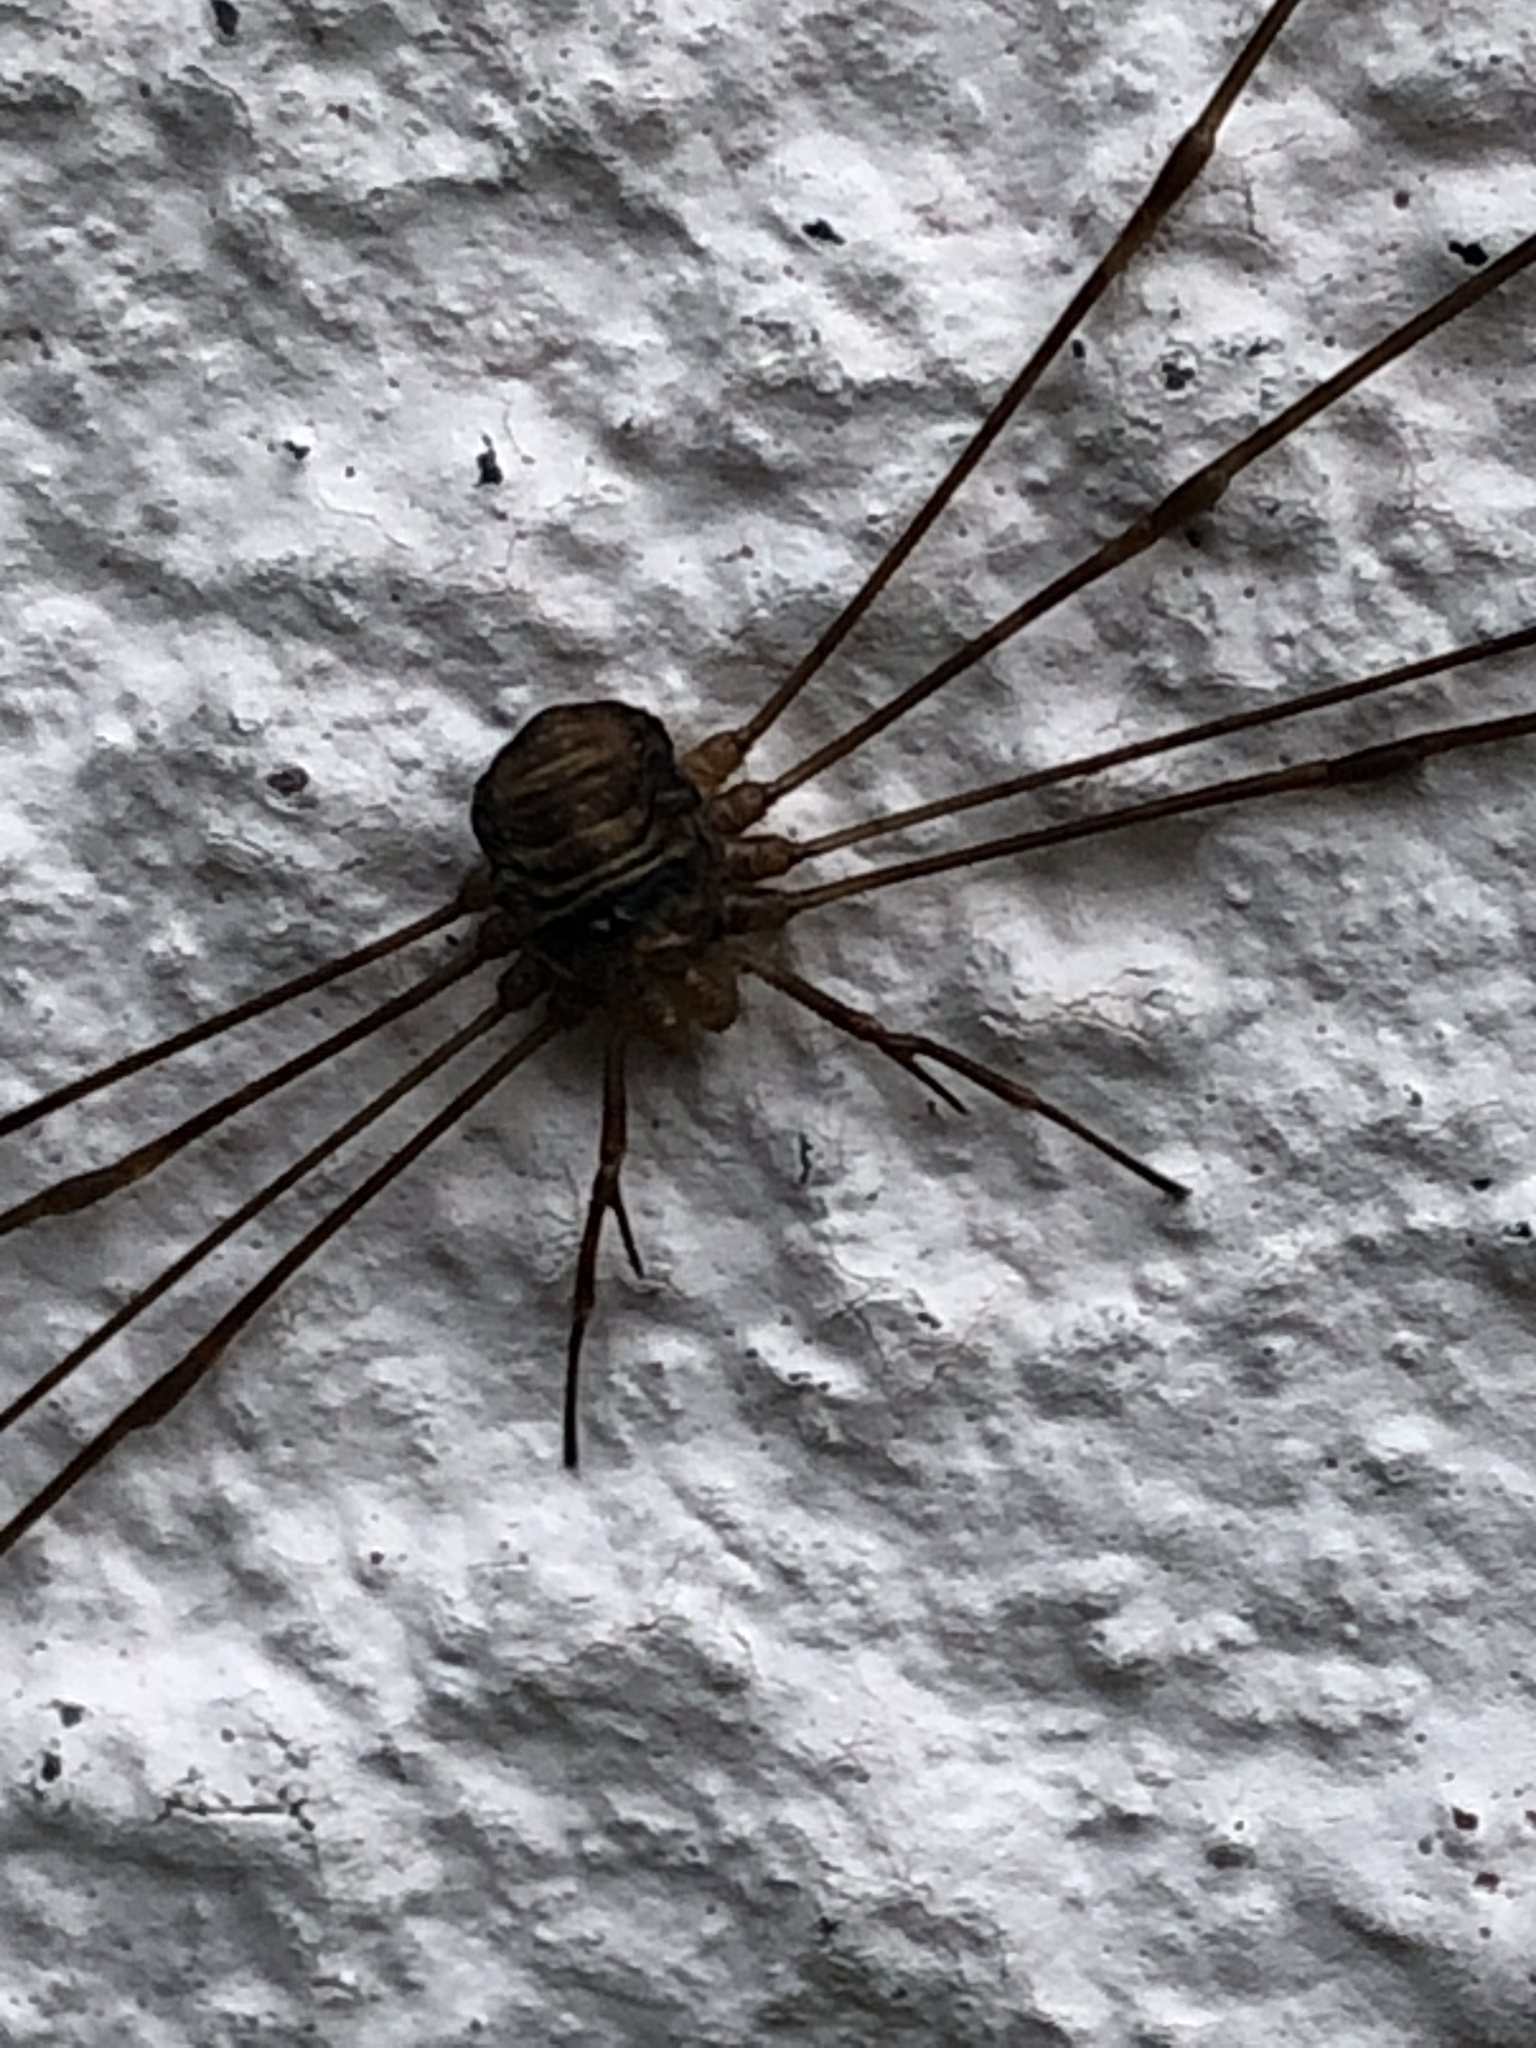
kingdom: Animalia
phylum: Arthropoda
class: Arachnida
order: Opiliones
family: Phalangiidae
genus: Dicranopalpus
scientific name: Dicranopalpus ramosus
